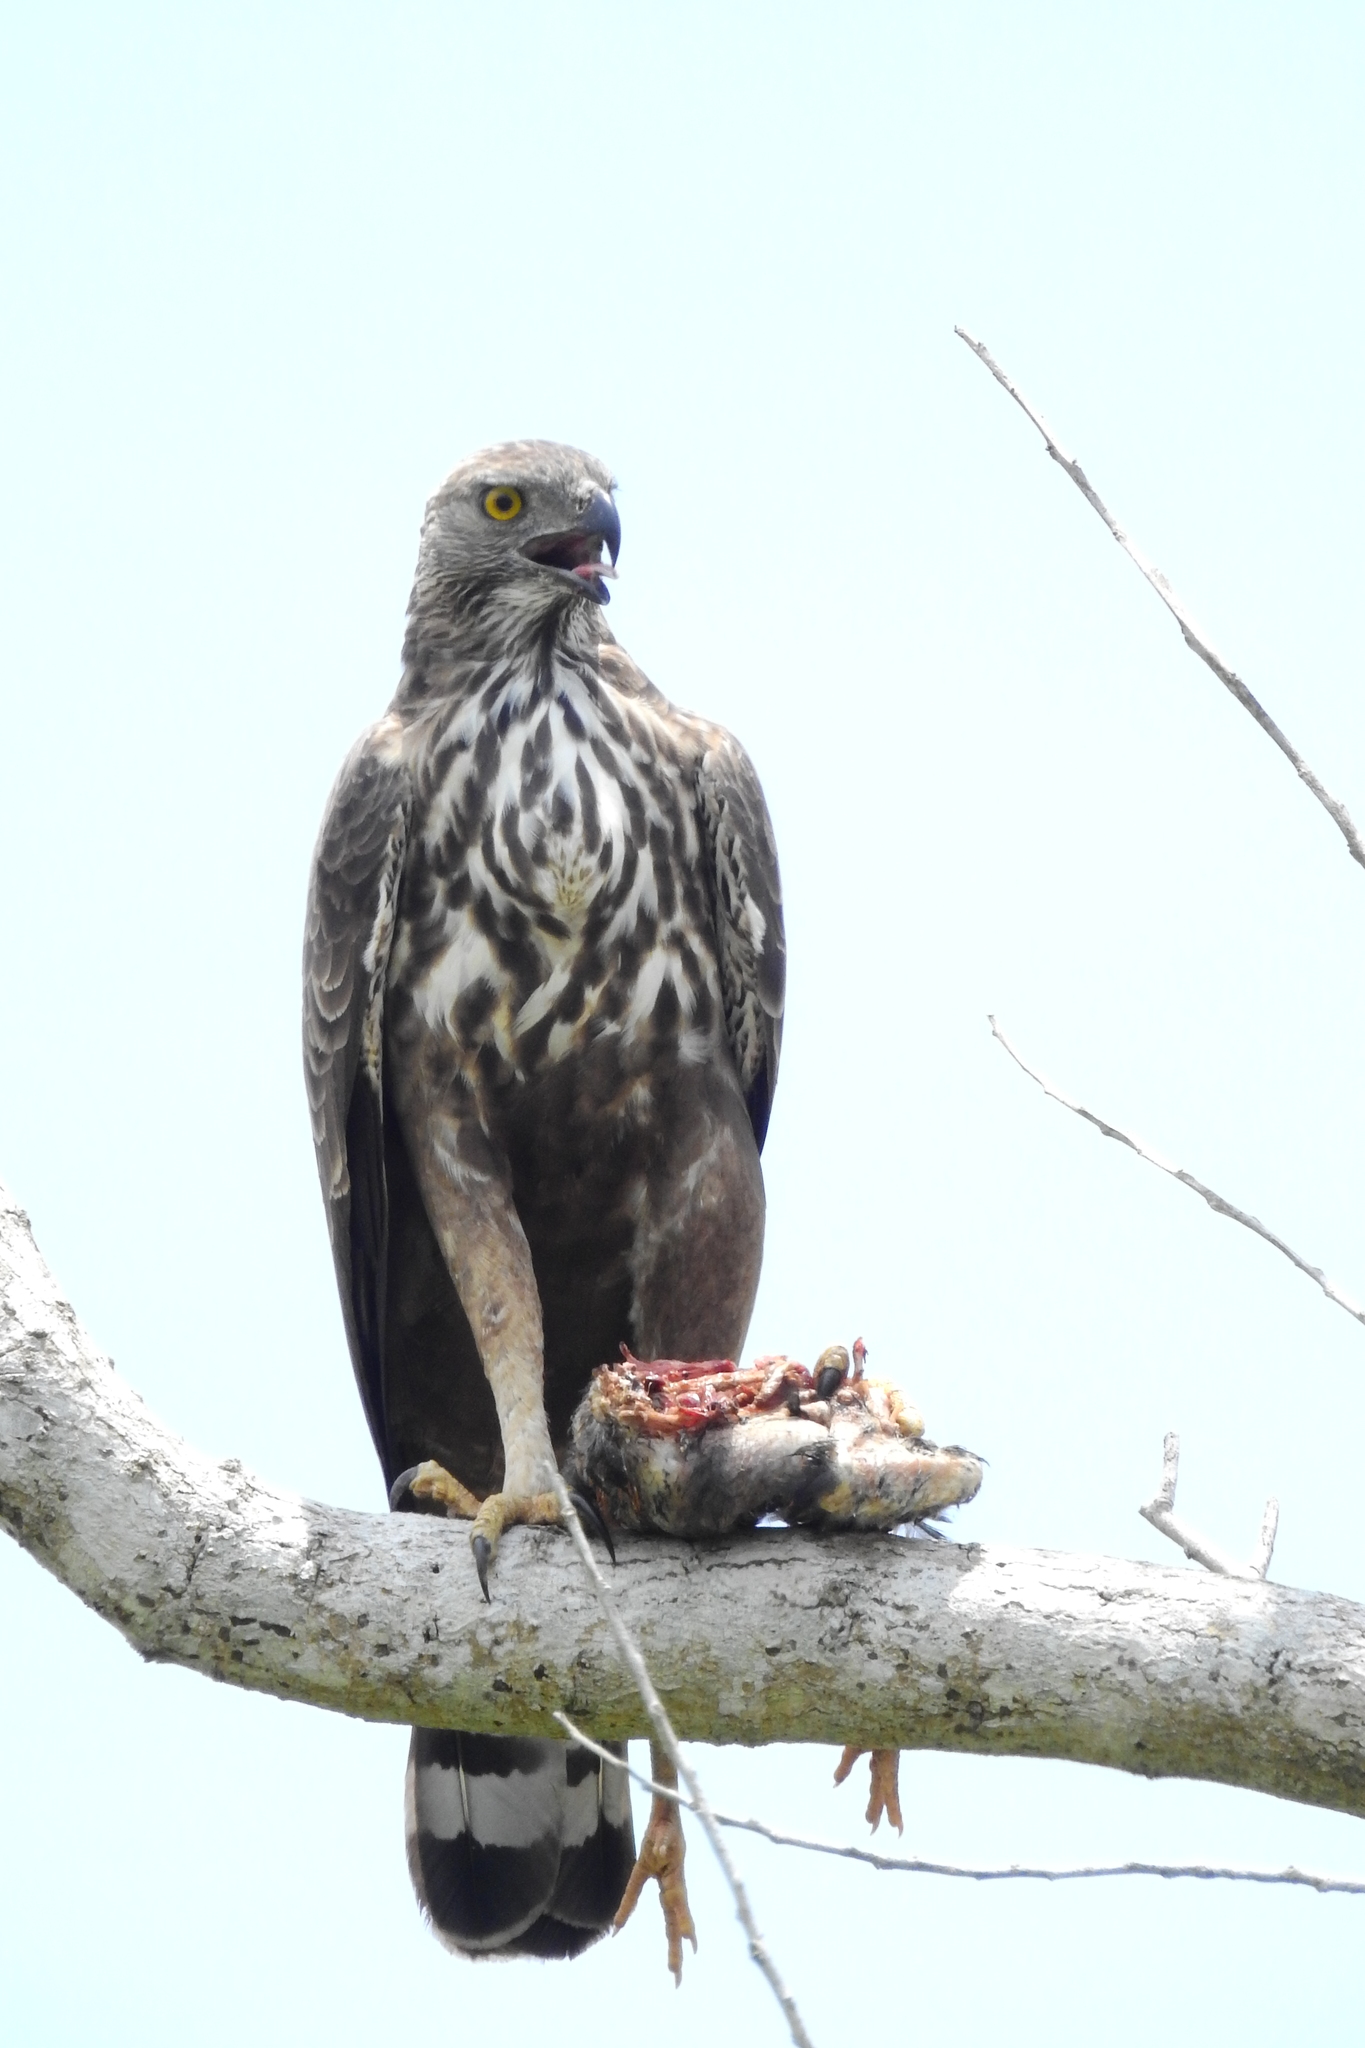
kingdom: Animalia
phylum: Chordata
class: Aves
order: Accipitriformes
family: Accipitridae
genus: Nisaetus
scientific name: Nisaetus cirrhatus
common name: Changeable hawk-eagle
